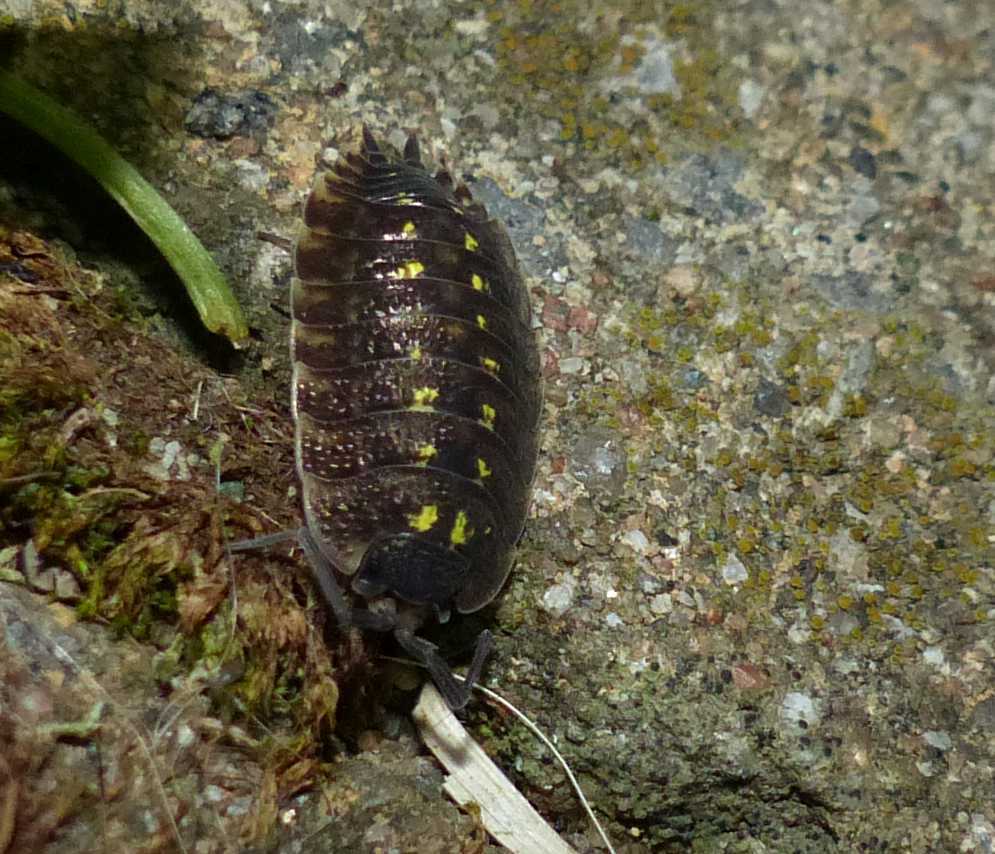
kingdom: Animalia
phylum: Arthropoda
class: Malacostraca
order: Isopoda
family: Porcellionidae
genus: Porcellio
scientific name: Porcellio spinicornis
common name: Painted woodlouse
